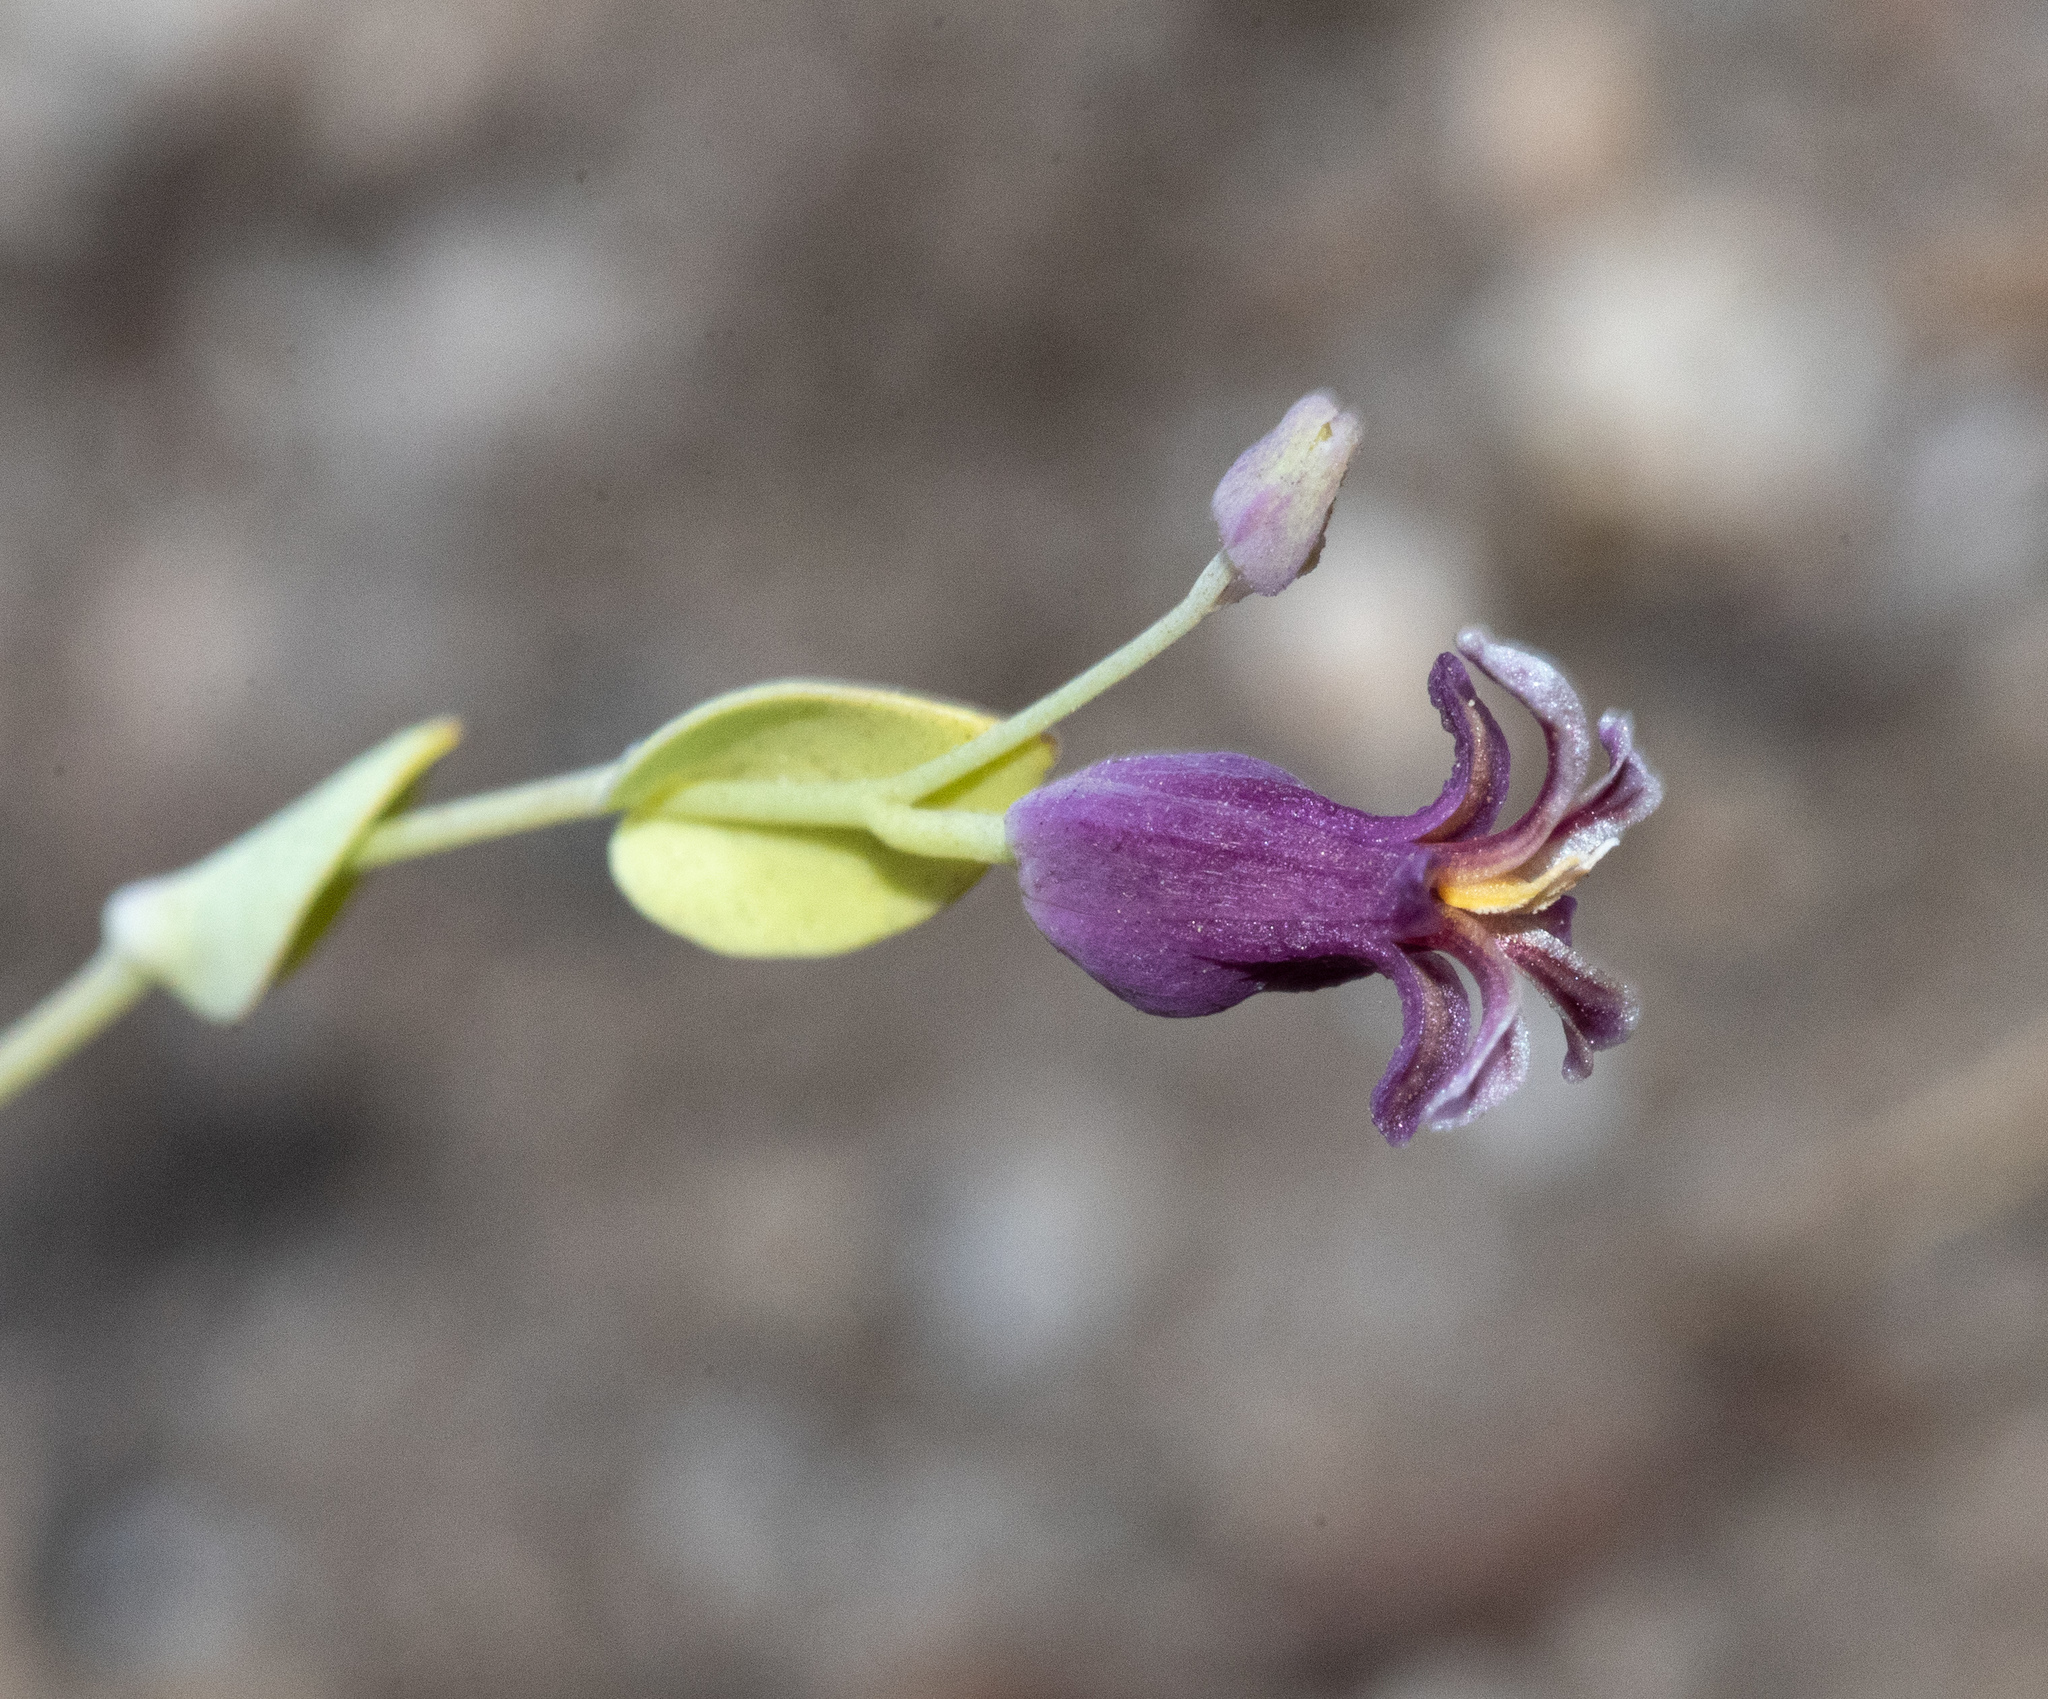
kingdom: Plantae
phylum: Tracheophyta
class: Magnoliopsida
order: Brassicales
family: Brassicaceae
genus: Streptanthus
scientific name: Streptanthus tortuosus
